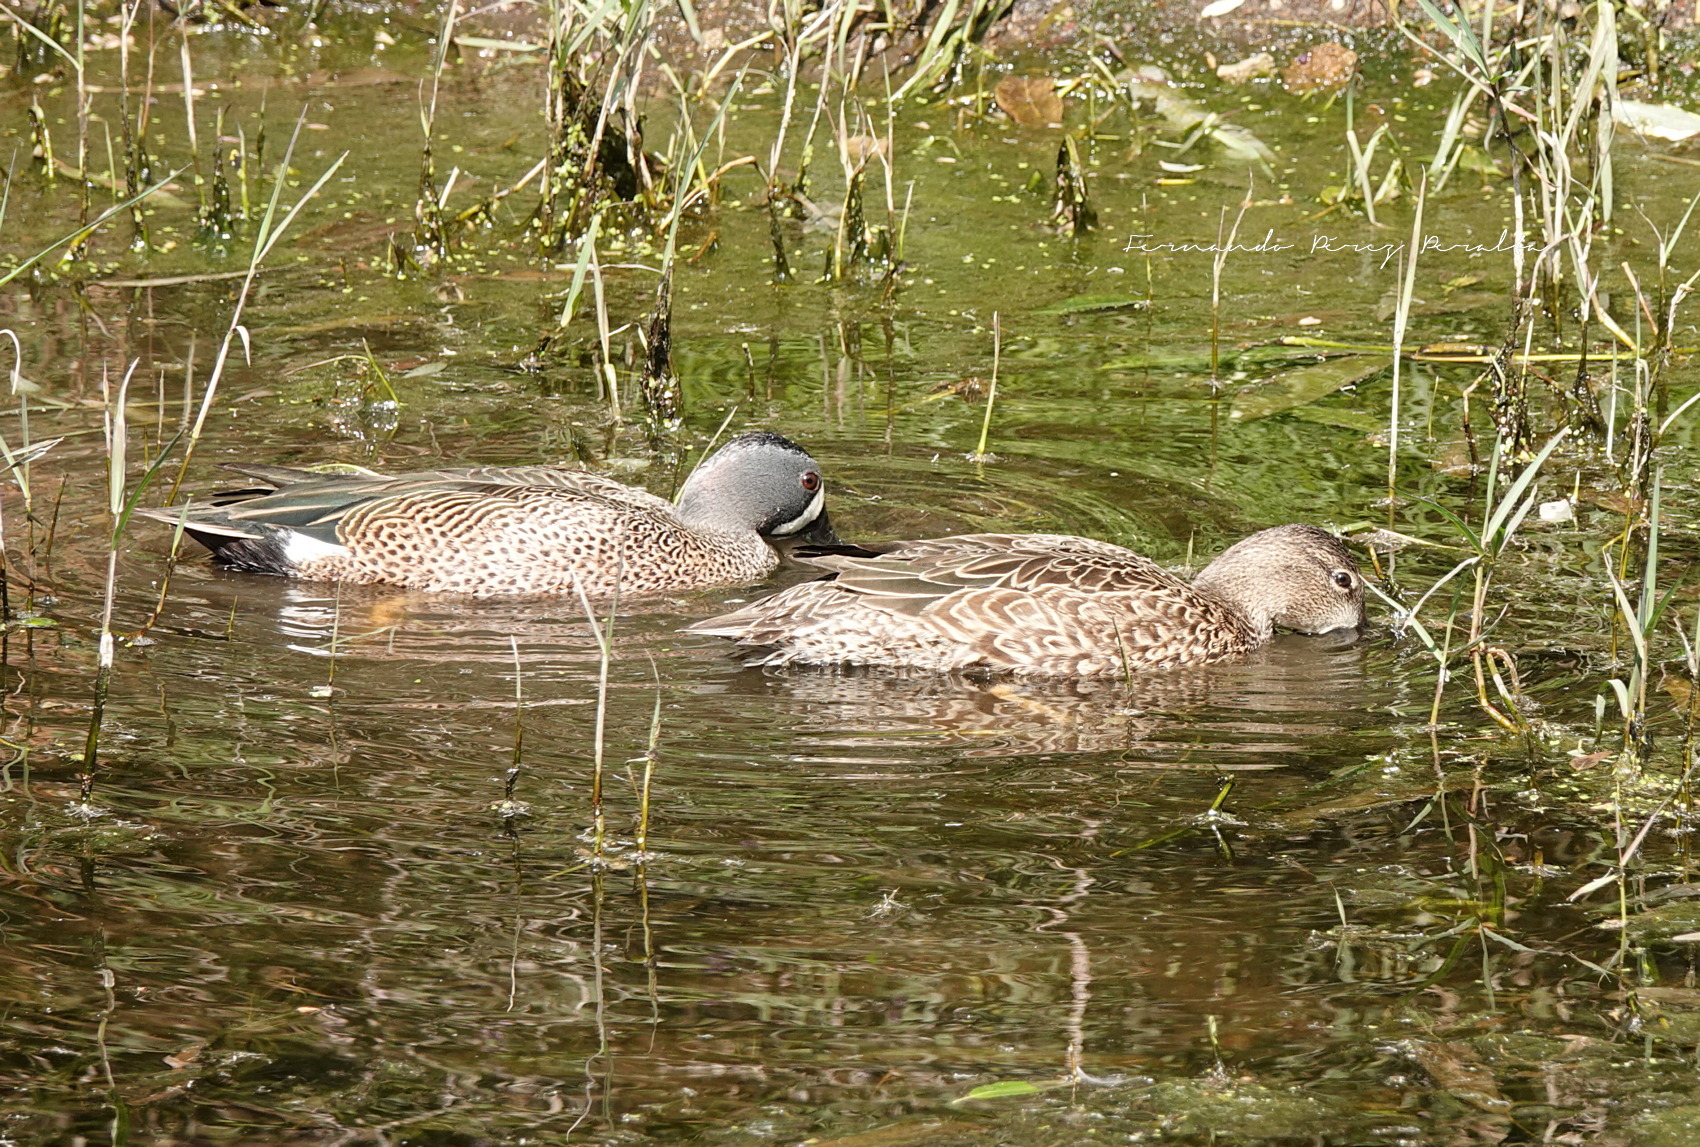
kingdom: Animalia
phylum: Chordata
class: Aves
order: Anseriformes
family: Anatidae
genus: Spatula
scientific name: Spatula discors
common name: Blue-winged teal
